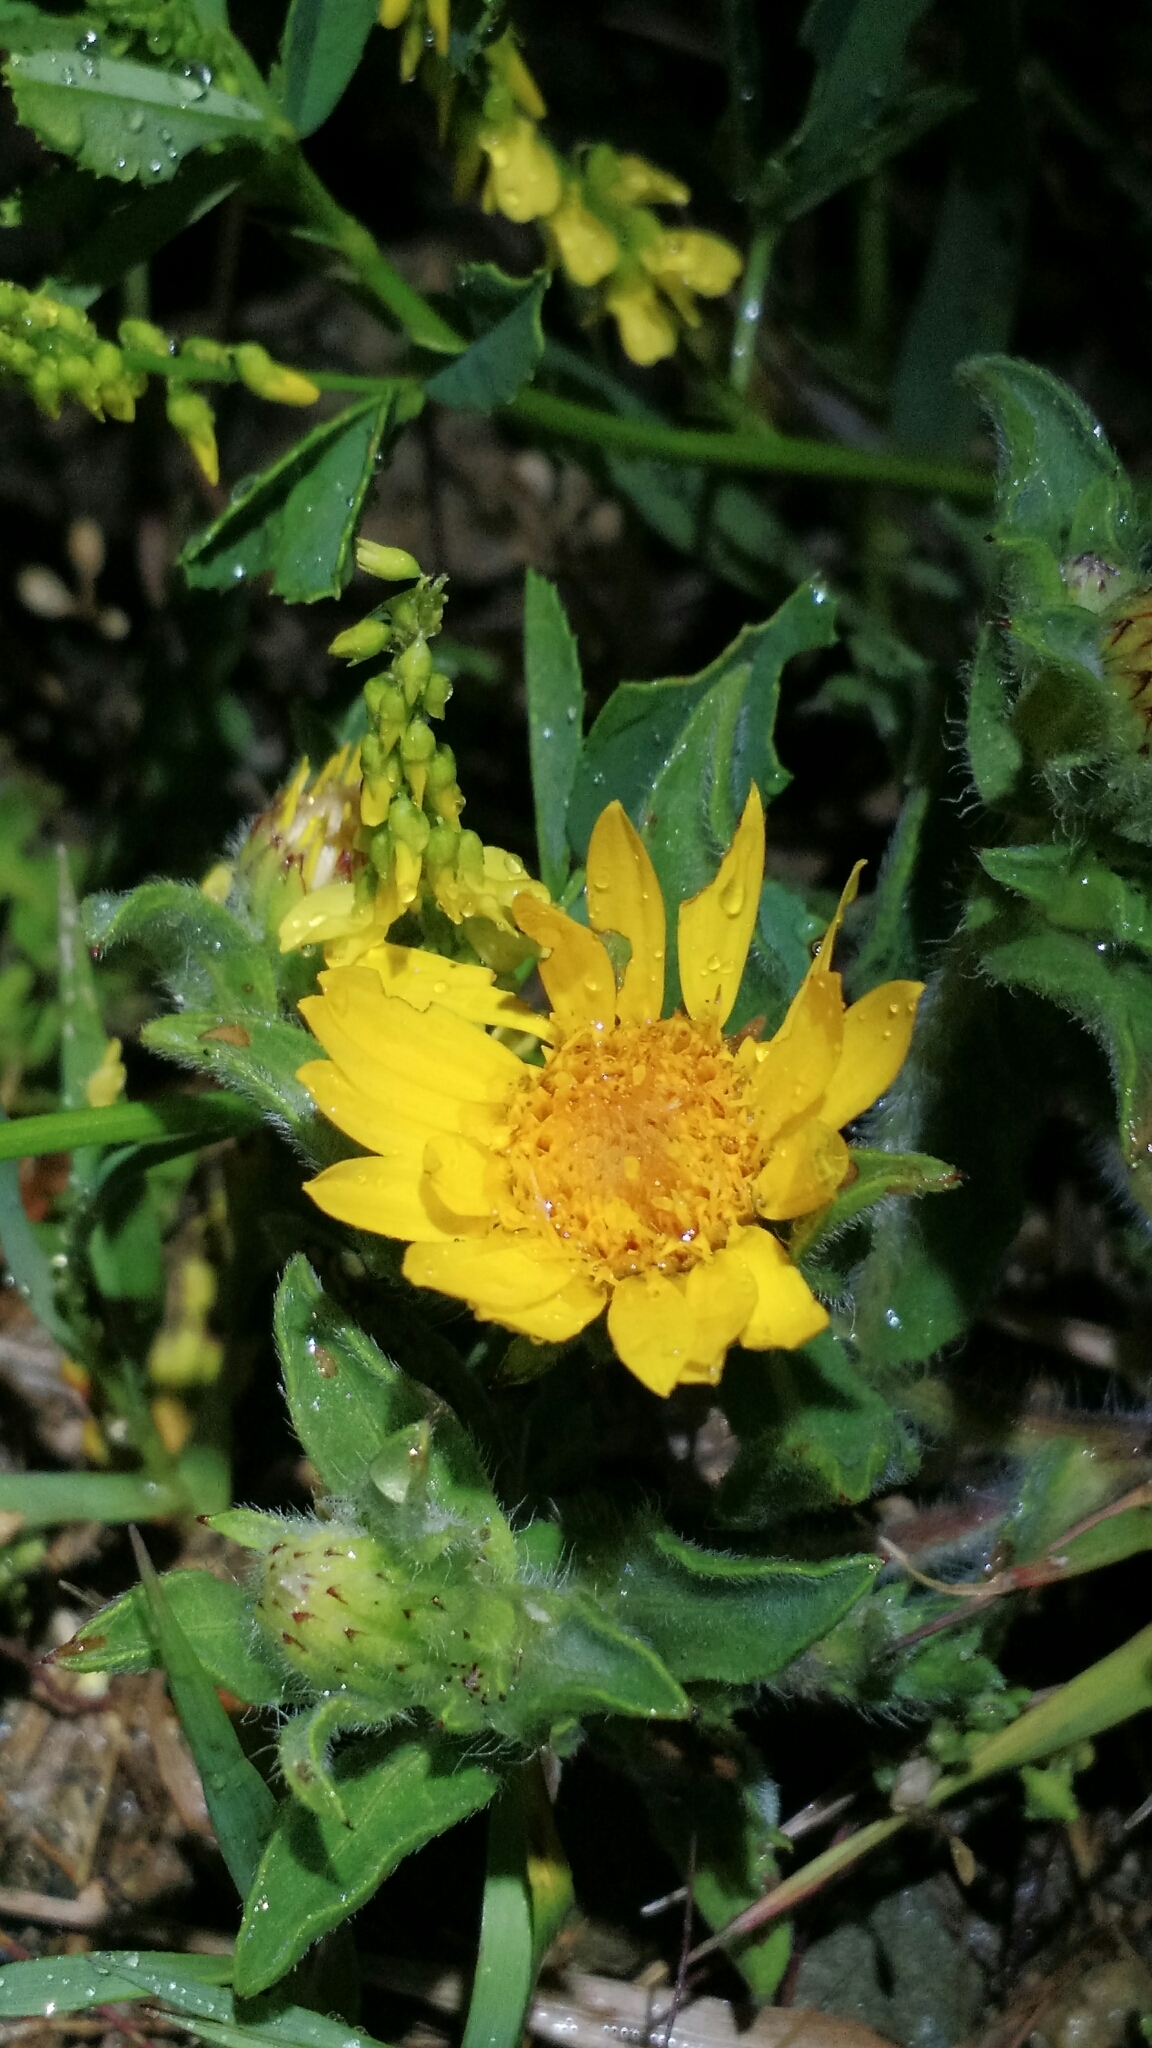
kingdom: Plantae
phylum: Tracheophyta
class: Magnoliopsida
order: Asterales
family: Asteraceae
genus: Heterotheca
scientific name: Heterotheca villosa
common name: Hairy false goldenaster
